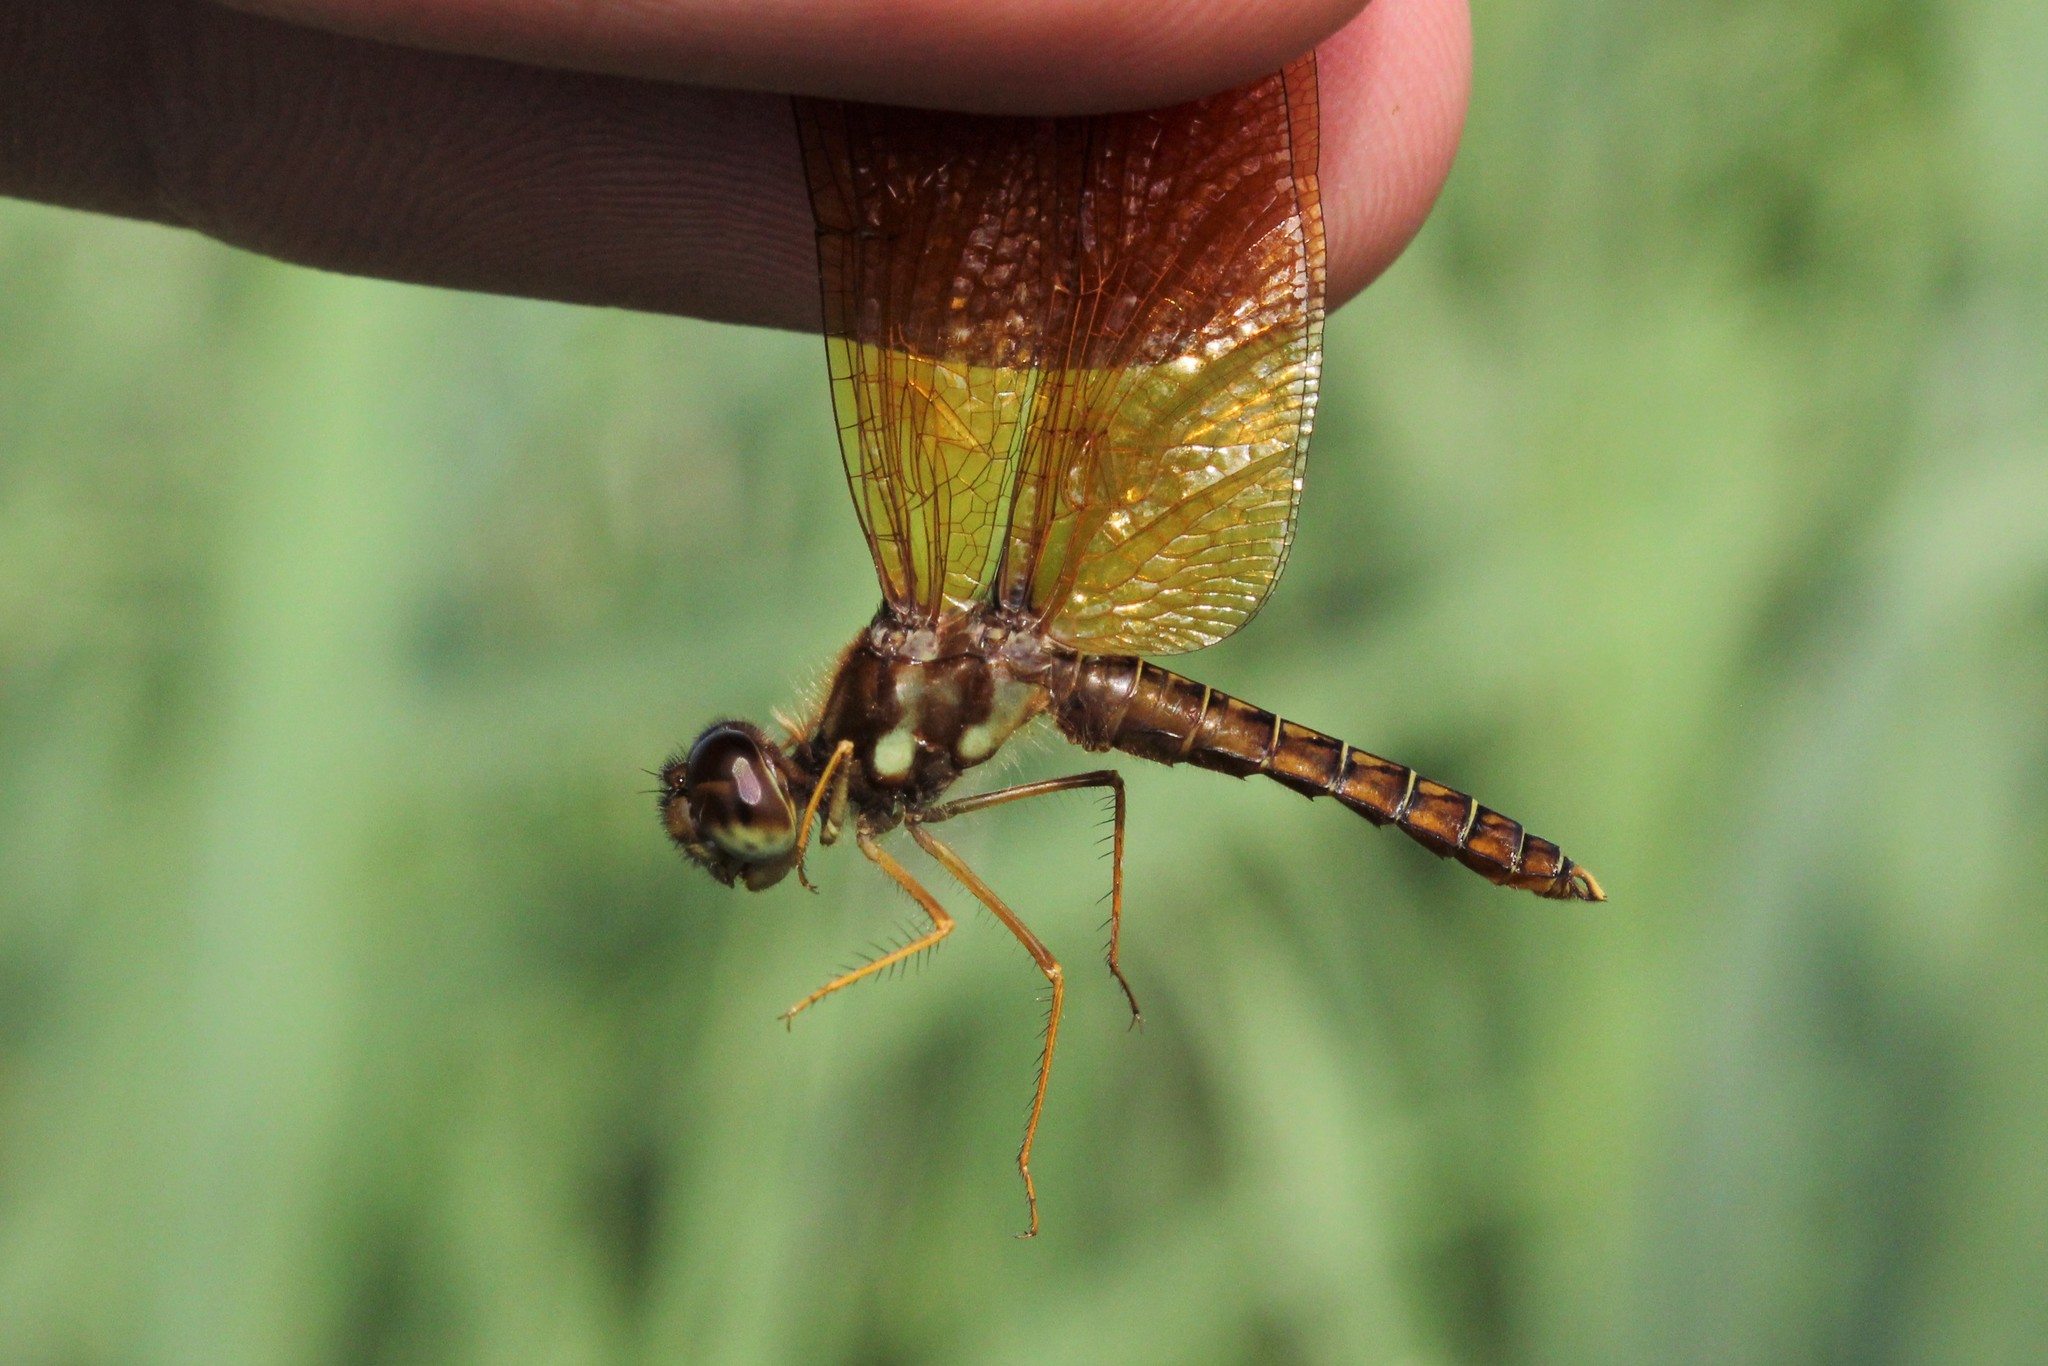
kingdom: Animalia
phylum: Arthropoda
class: Insecta
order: Odonata
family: Libellulidae
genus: Perithemis
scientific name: Perithemis tenera
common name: Eastern amberwing
